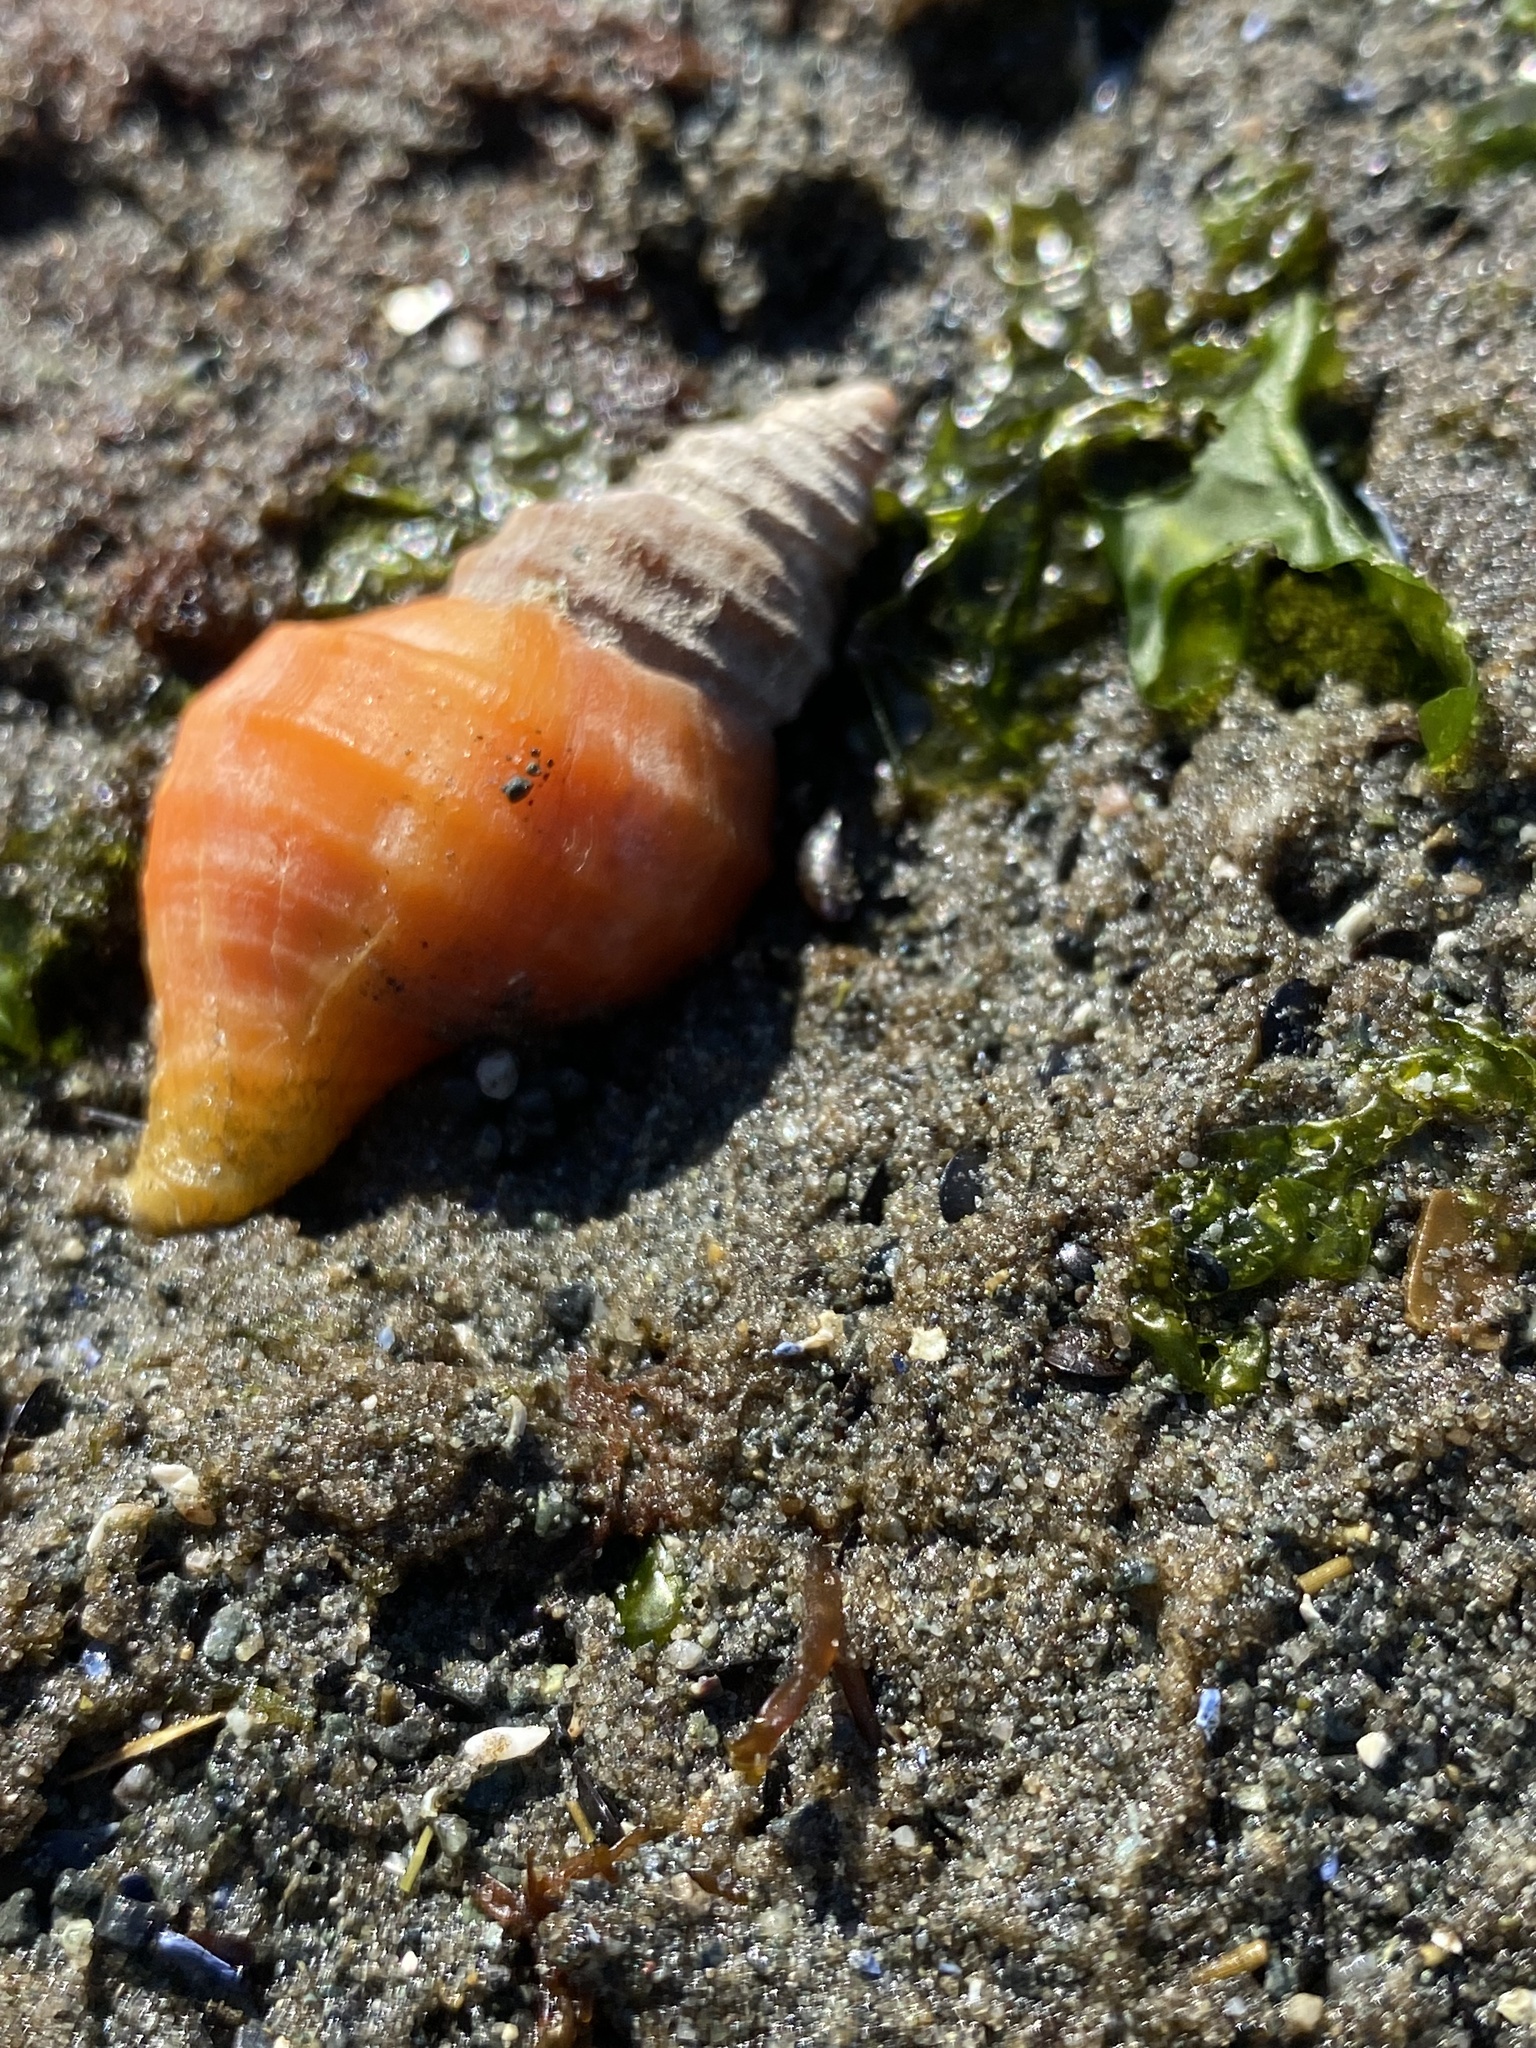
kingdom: Animalia
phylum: Mollusca
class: Gastropoda
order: Neogastropoda
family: Muricidae
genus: Nucella
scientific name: Nucella lamellosa
